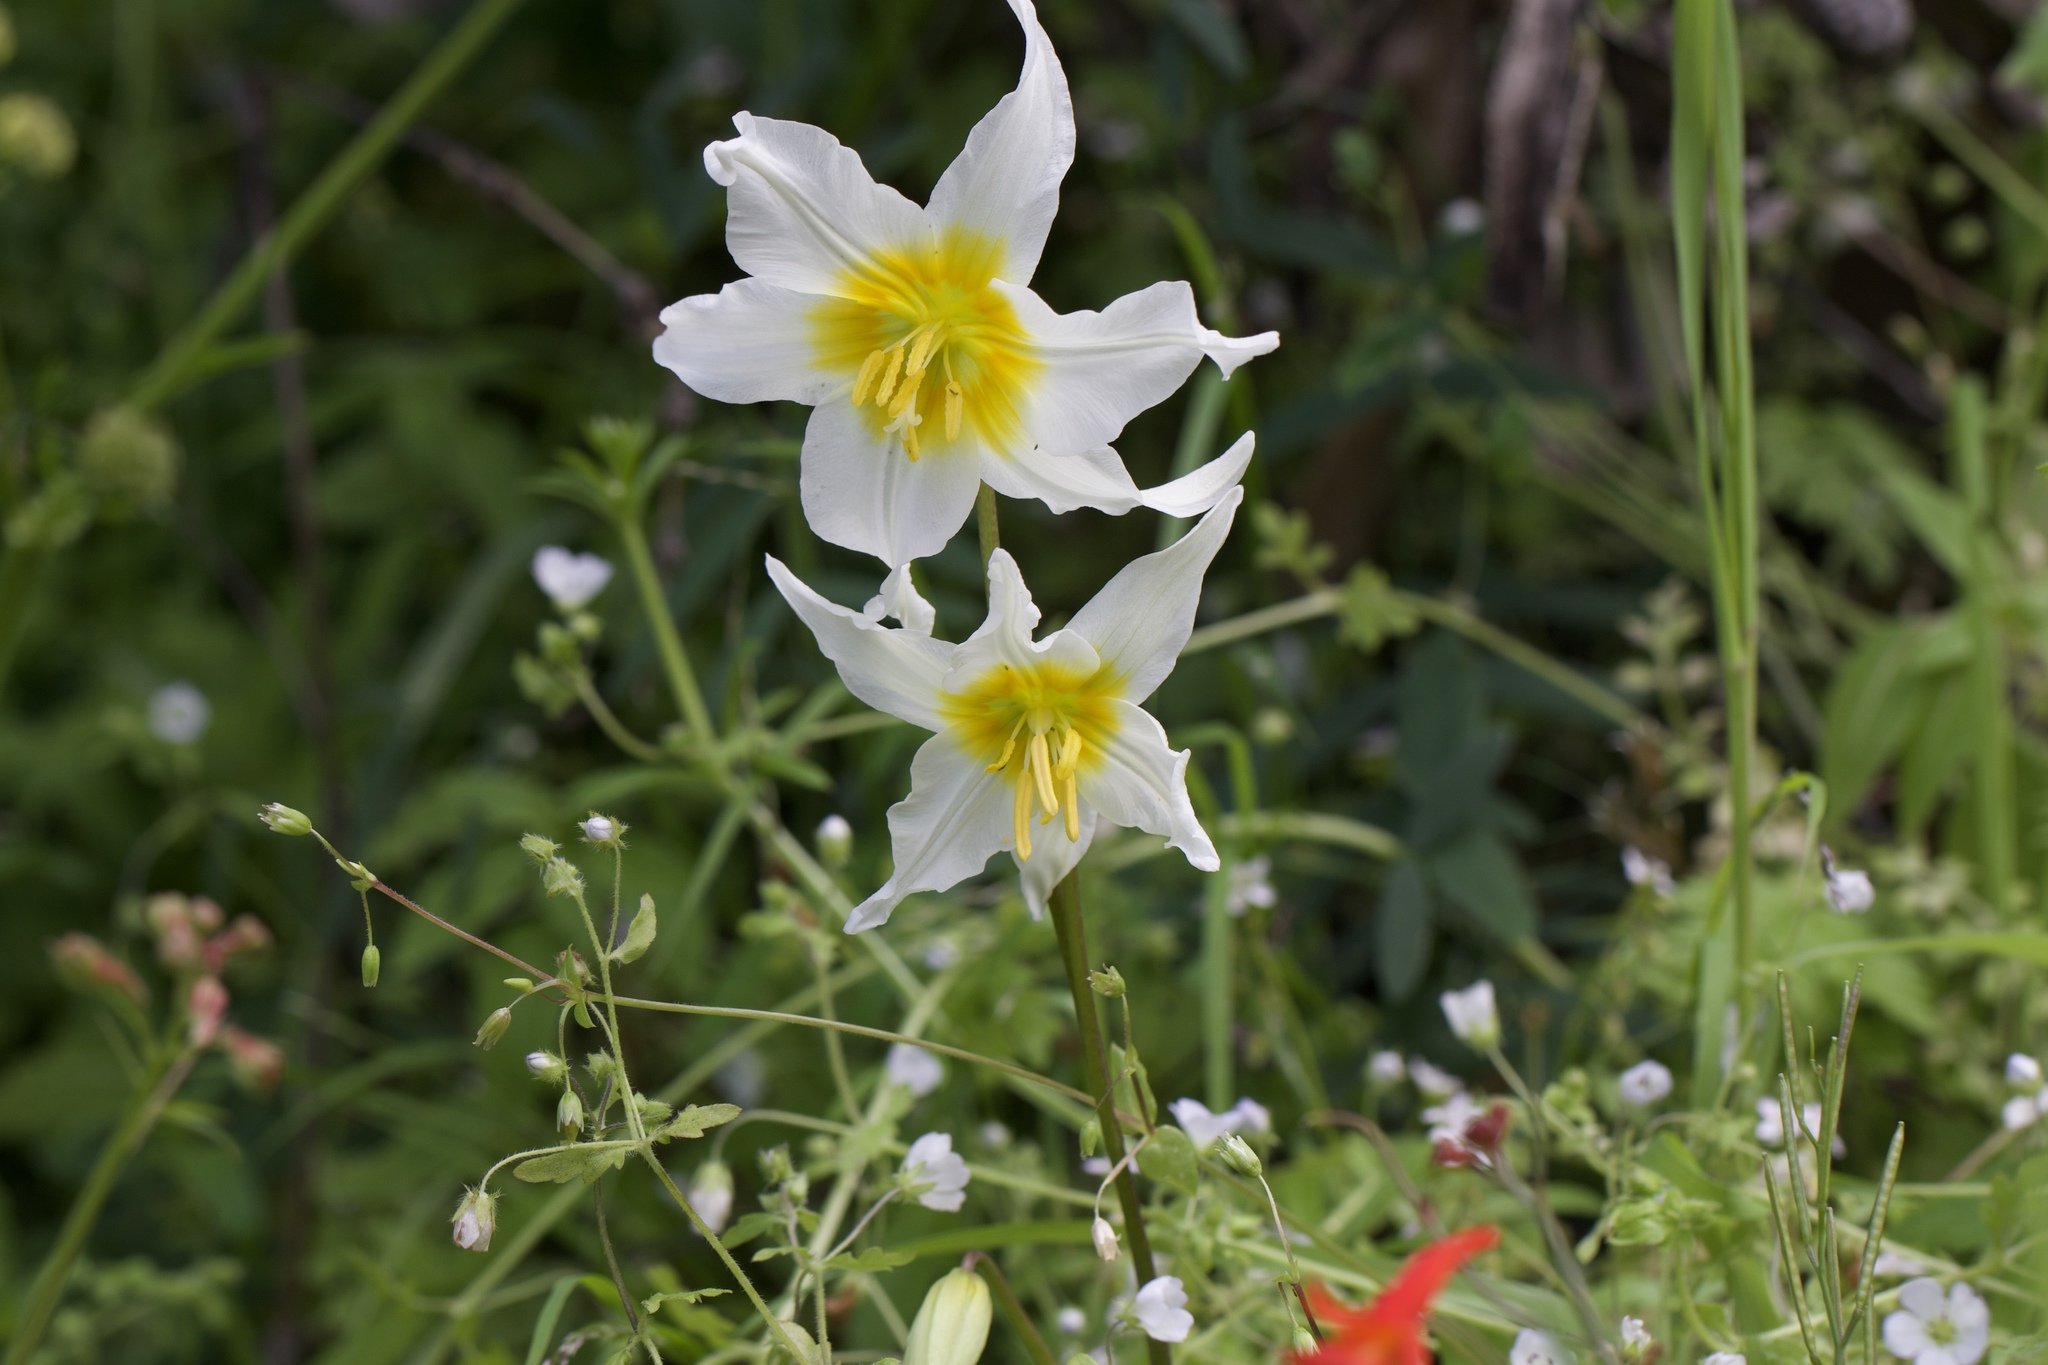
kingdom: Plantae
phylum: Tracheophyta
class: Liliopsida
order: Liliales
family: Liliaceae
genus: Erythronium
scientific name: Erythronium helenae
